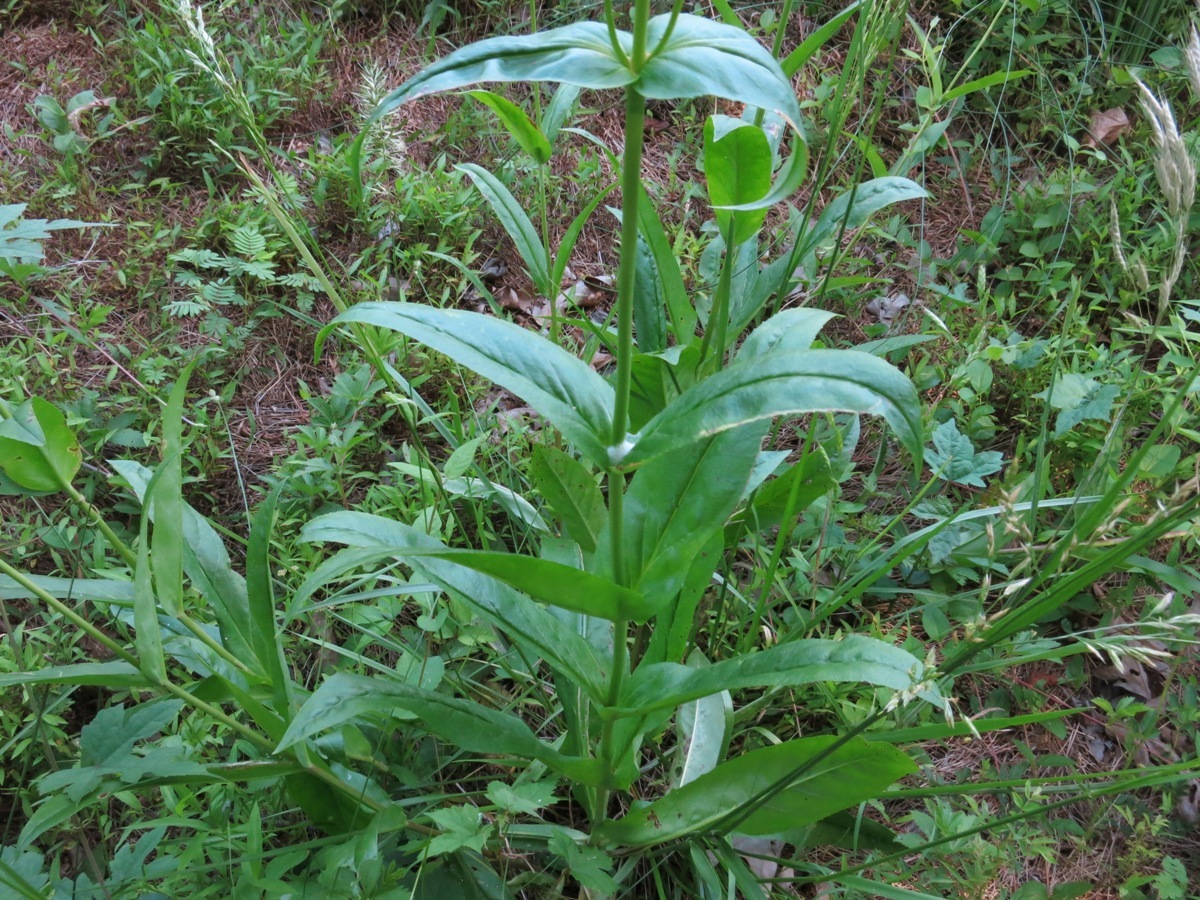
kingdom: Plantae
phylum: Tracheophyta
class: Magnoliopsida
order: Lamiales
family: Plantaginaceae
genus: Penstemon
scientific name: Penstemon digitalis
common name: Foxglove beardtongue
